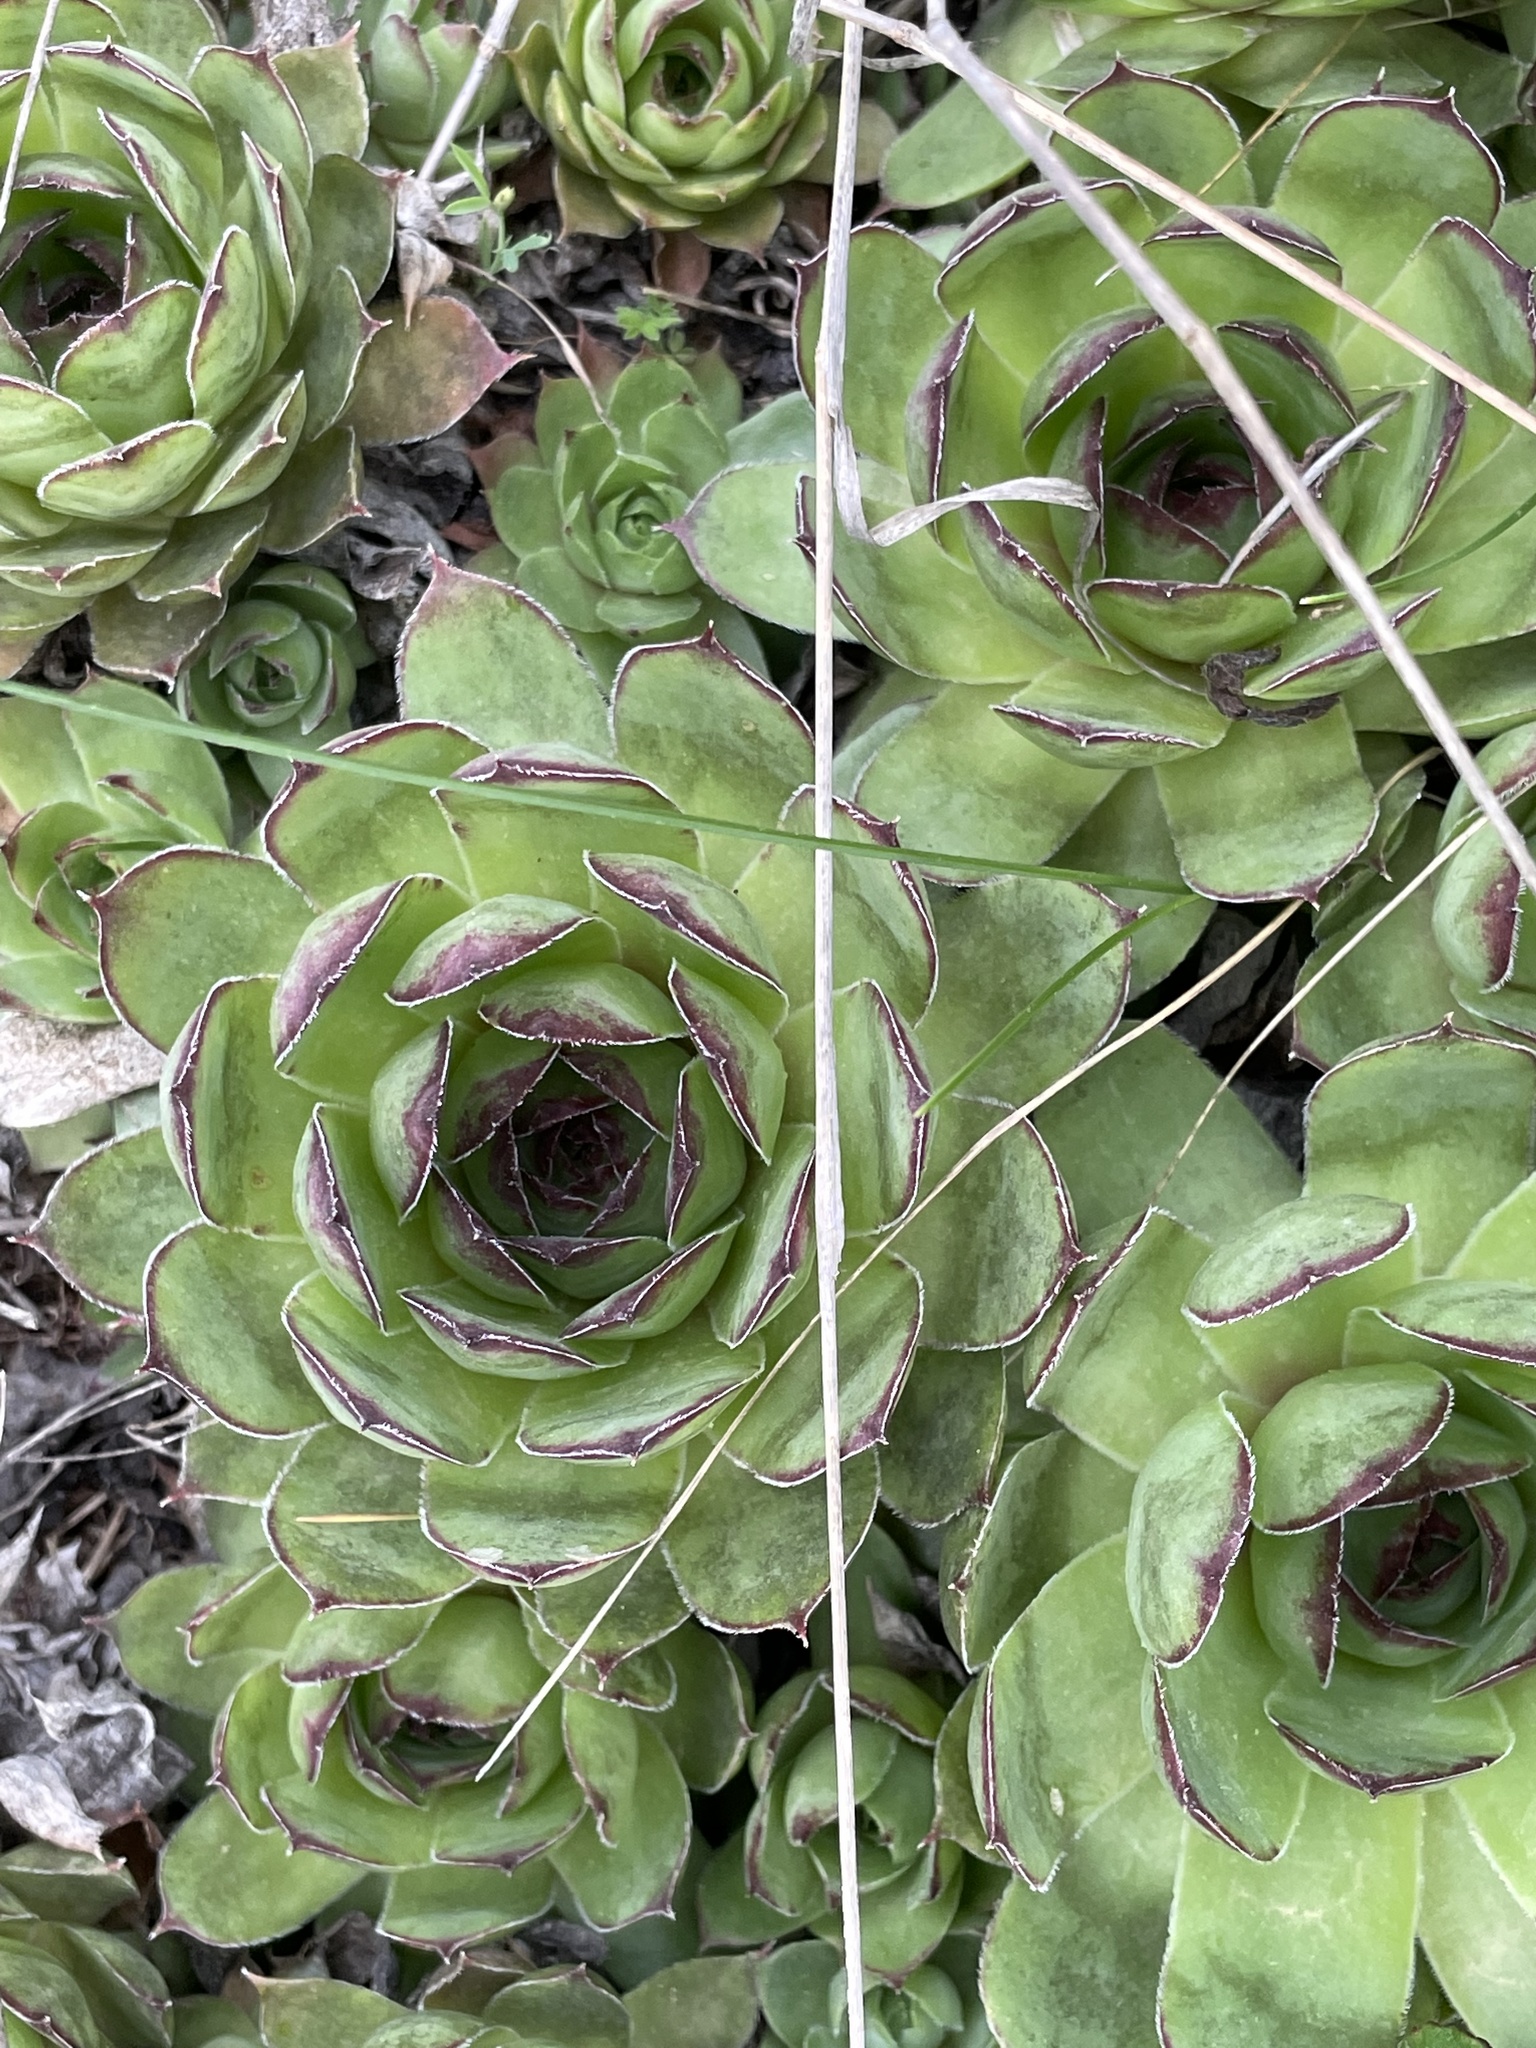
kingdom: Plantae
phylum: Tracheophyta
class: Magnoliopsida
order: Saxifragales
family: Crassulaceae
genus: Sempervivum
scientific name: Sempervivum tectorum
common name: House-leek
